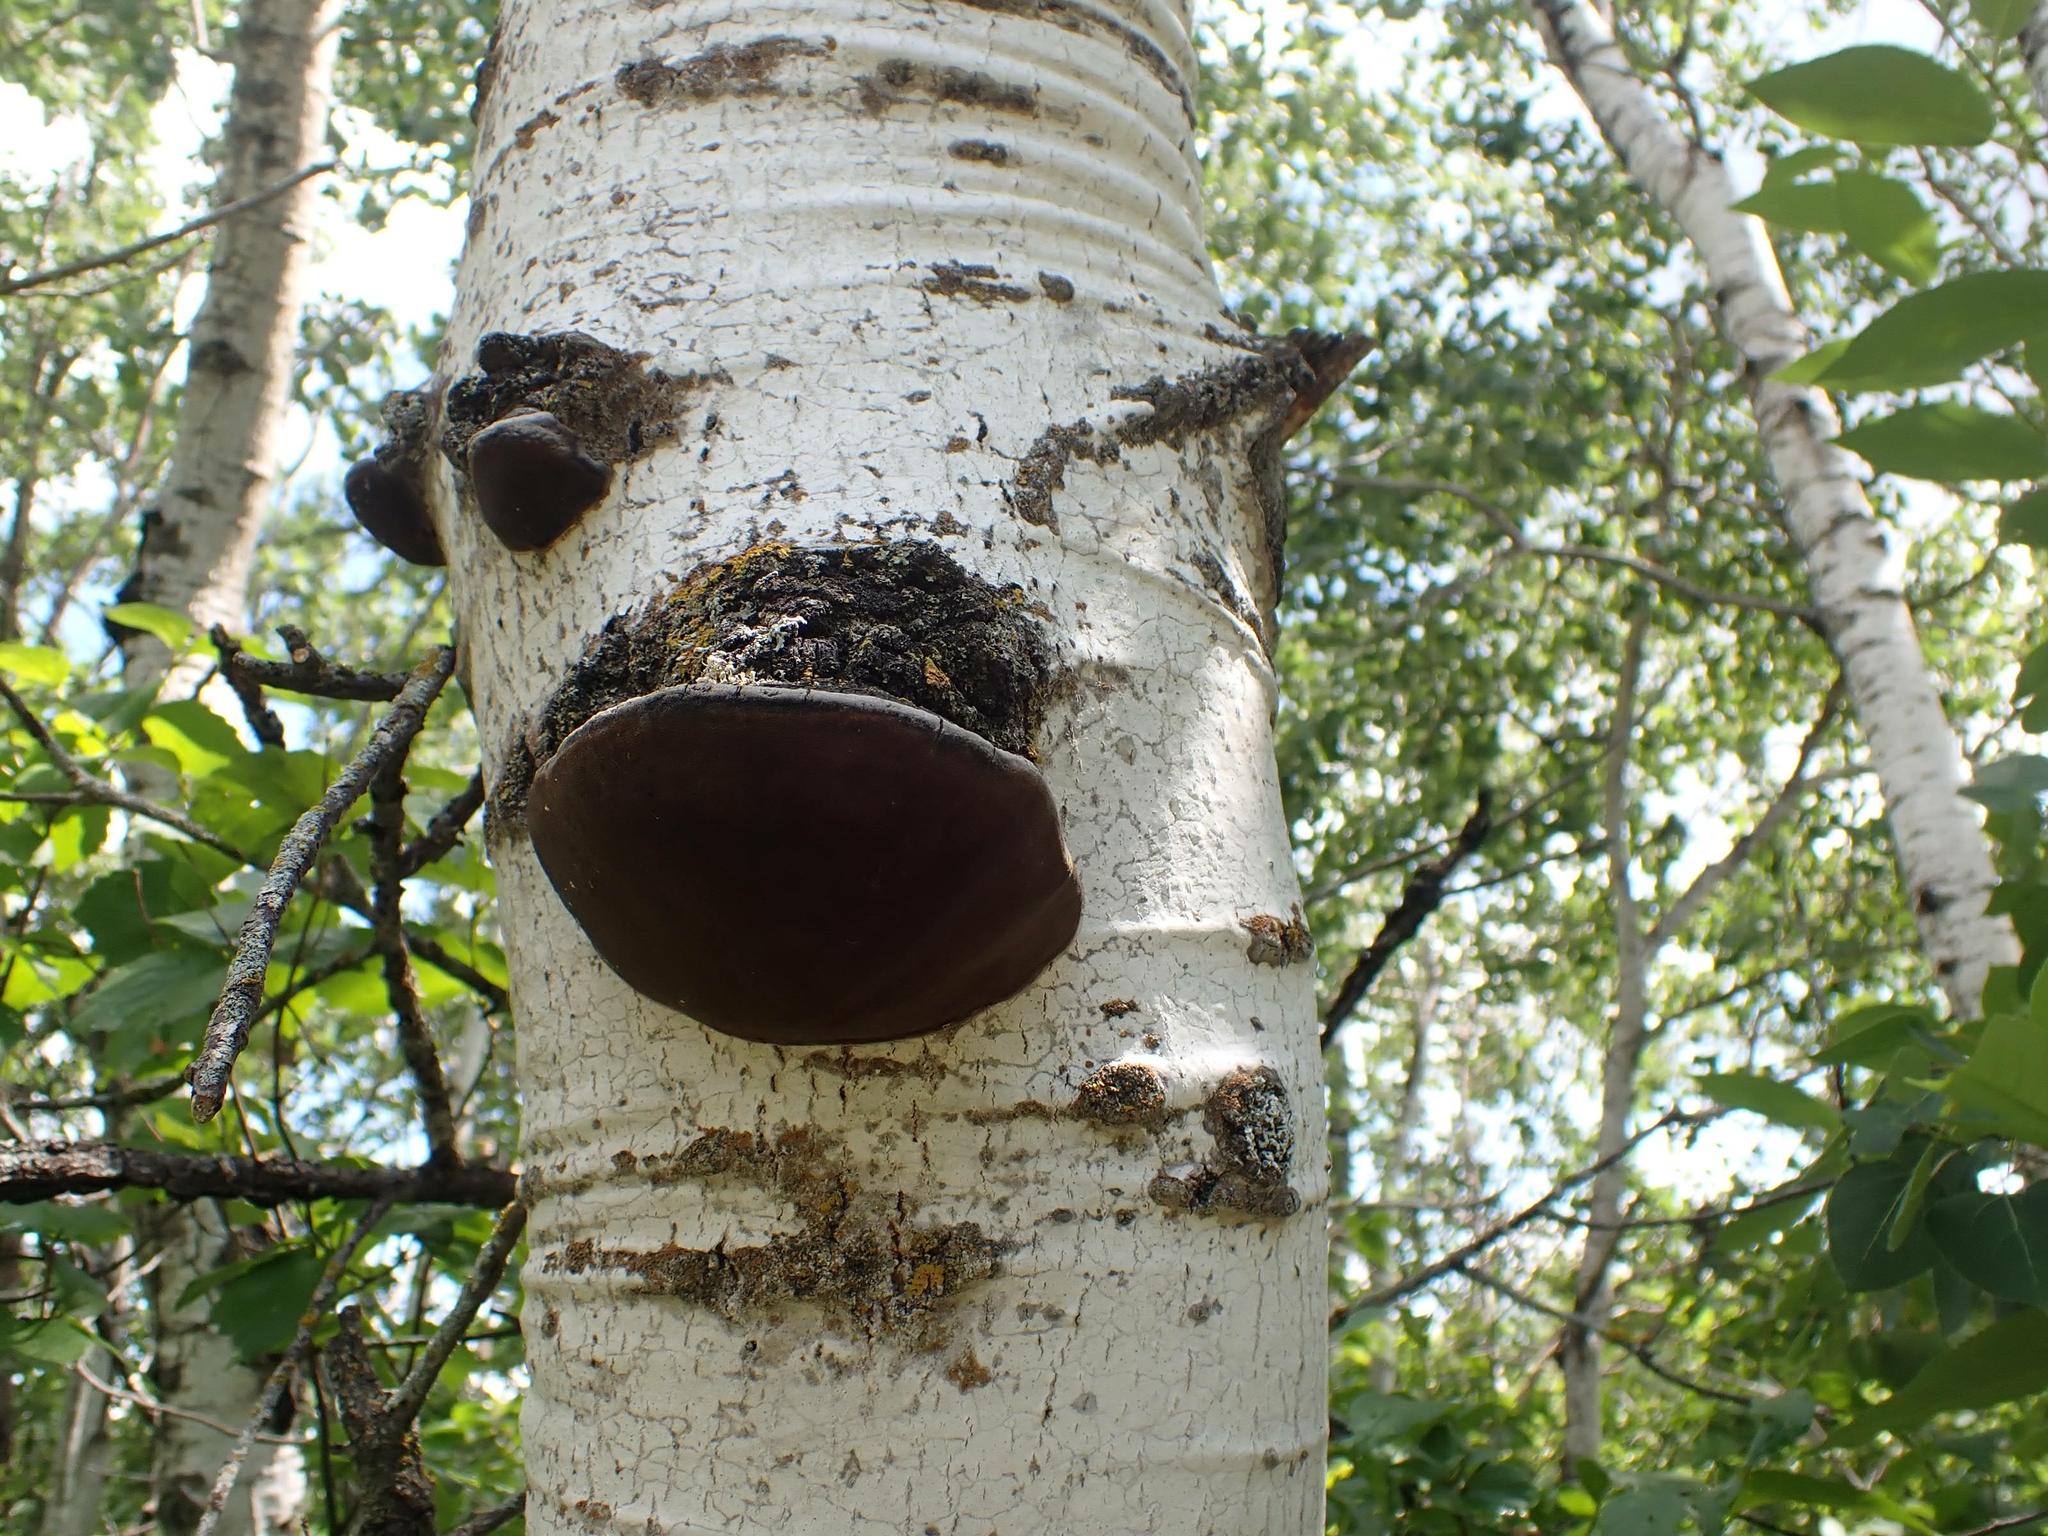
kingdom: Fungi
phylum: Basidiomycota
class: Agaricomycetes
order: Hymenochaetales
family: Hymenochaetaceae
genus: Phellinus
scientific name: Phellinus tremulae
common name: Aspen bracket
